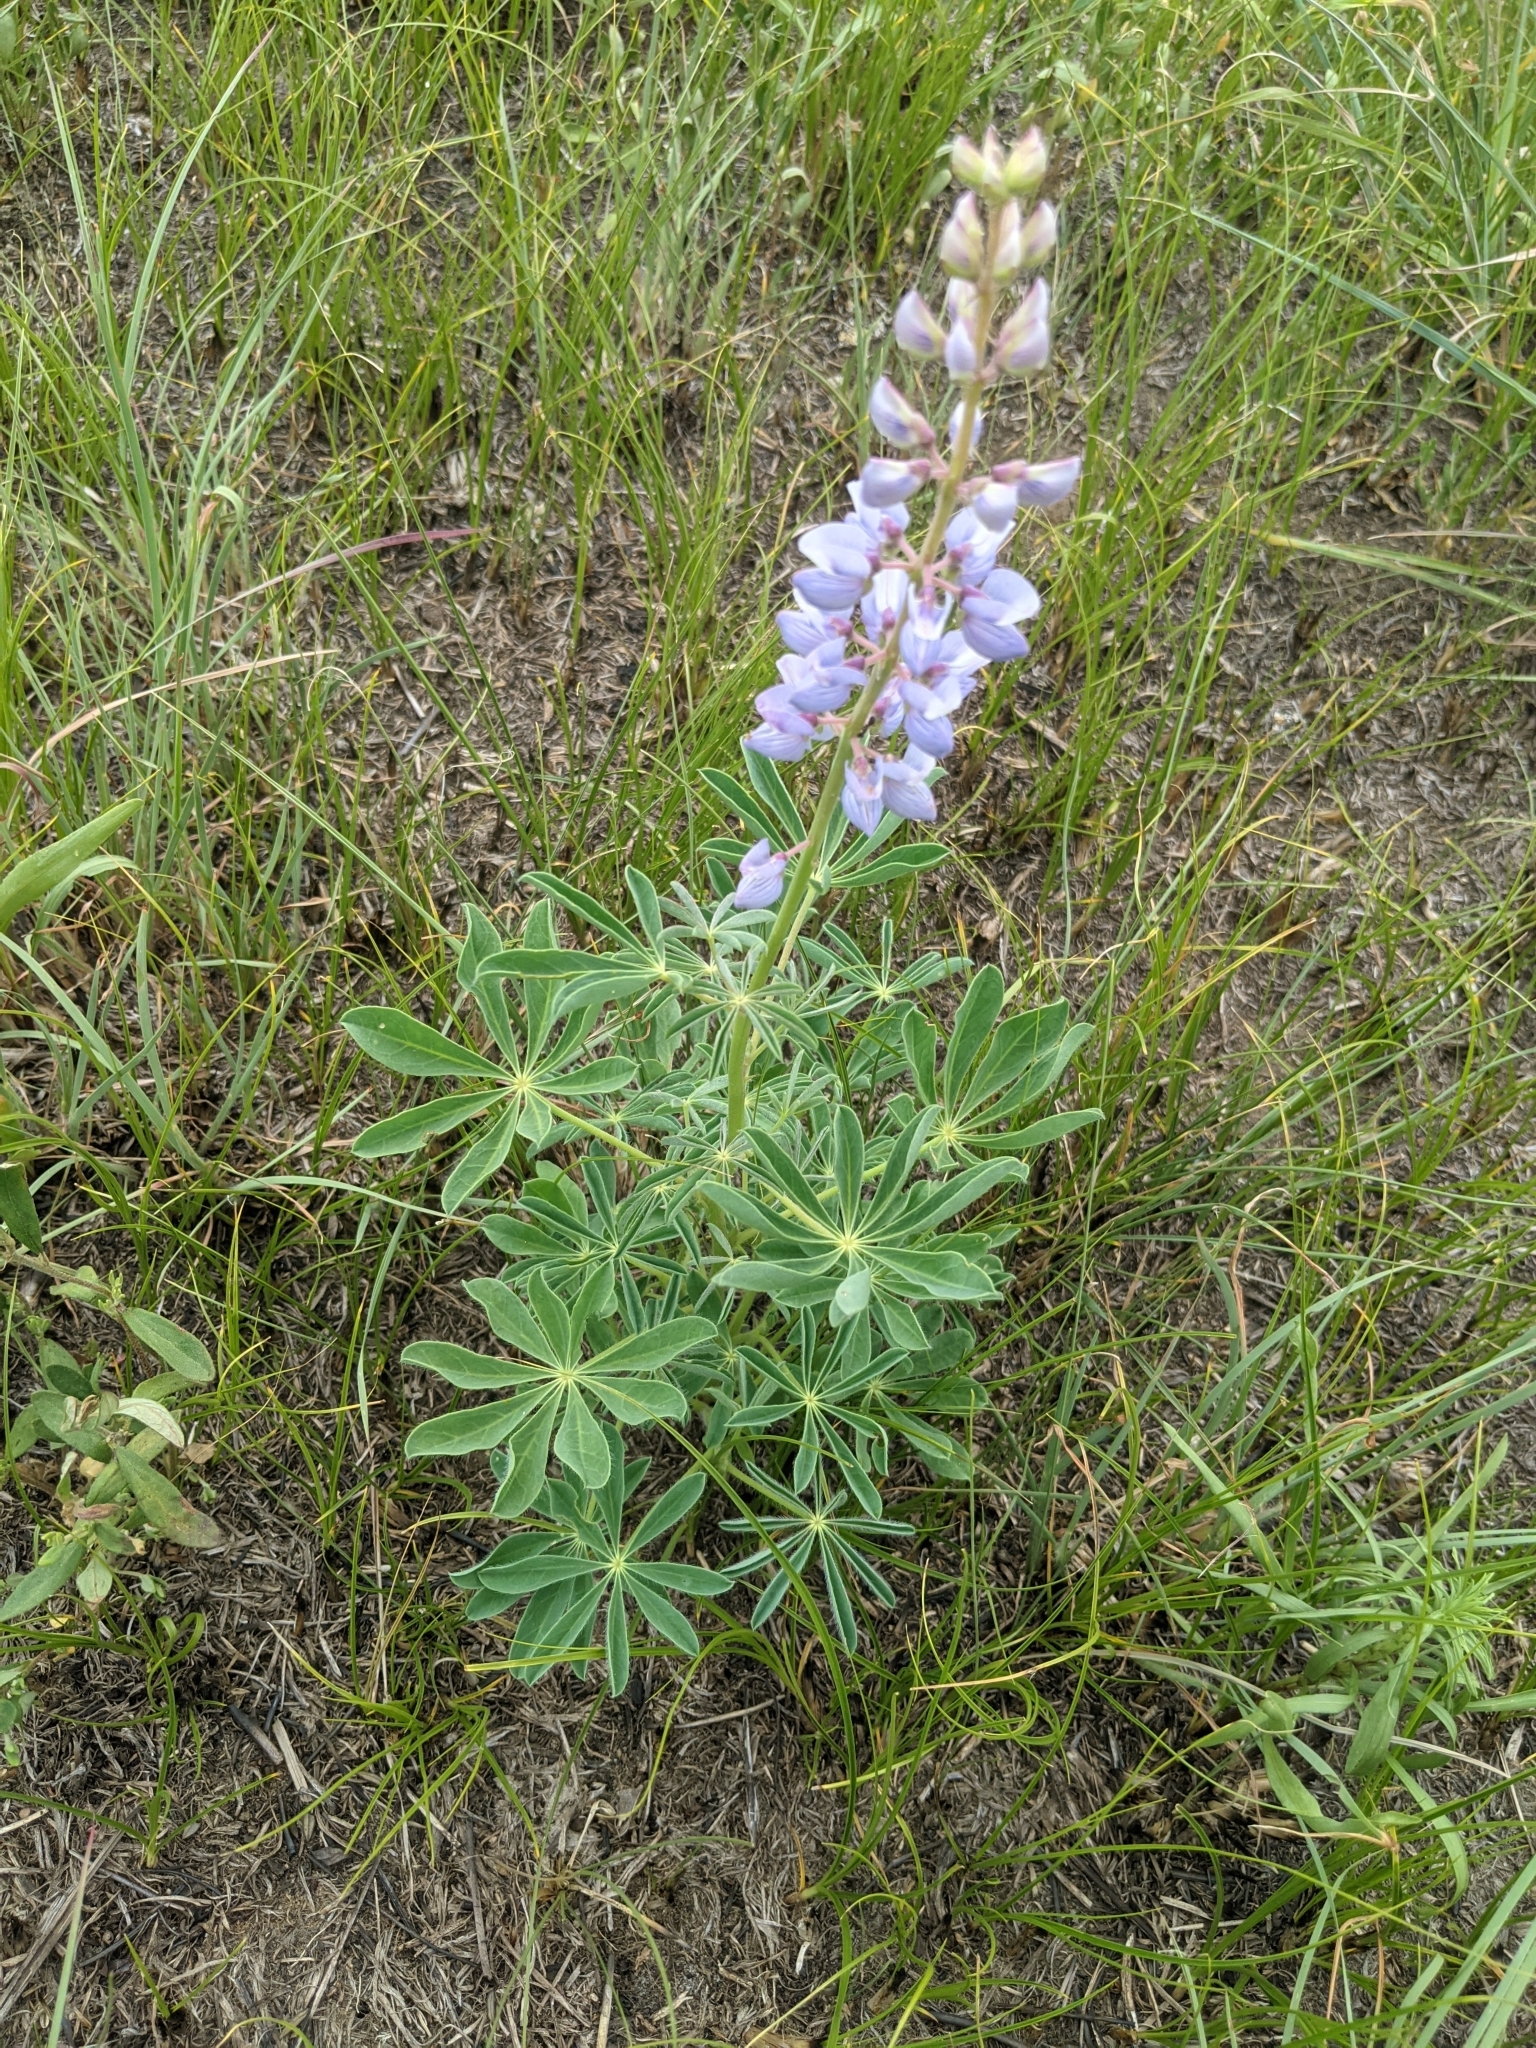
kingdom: Plantae
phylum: Tracheophyta
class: Magnoliopsida
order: Fabales
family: Fabaceae
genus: Lupinus
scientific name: Lupinus perennis
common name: Sundial lupine
